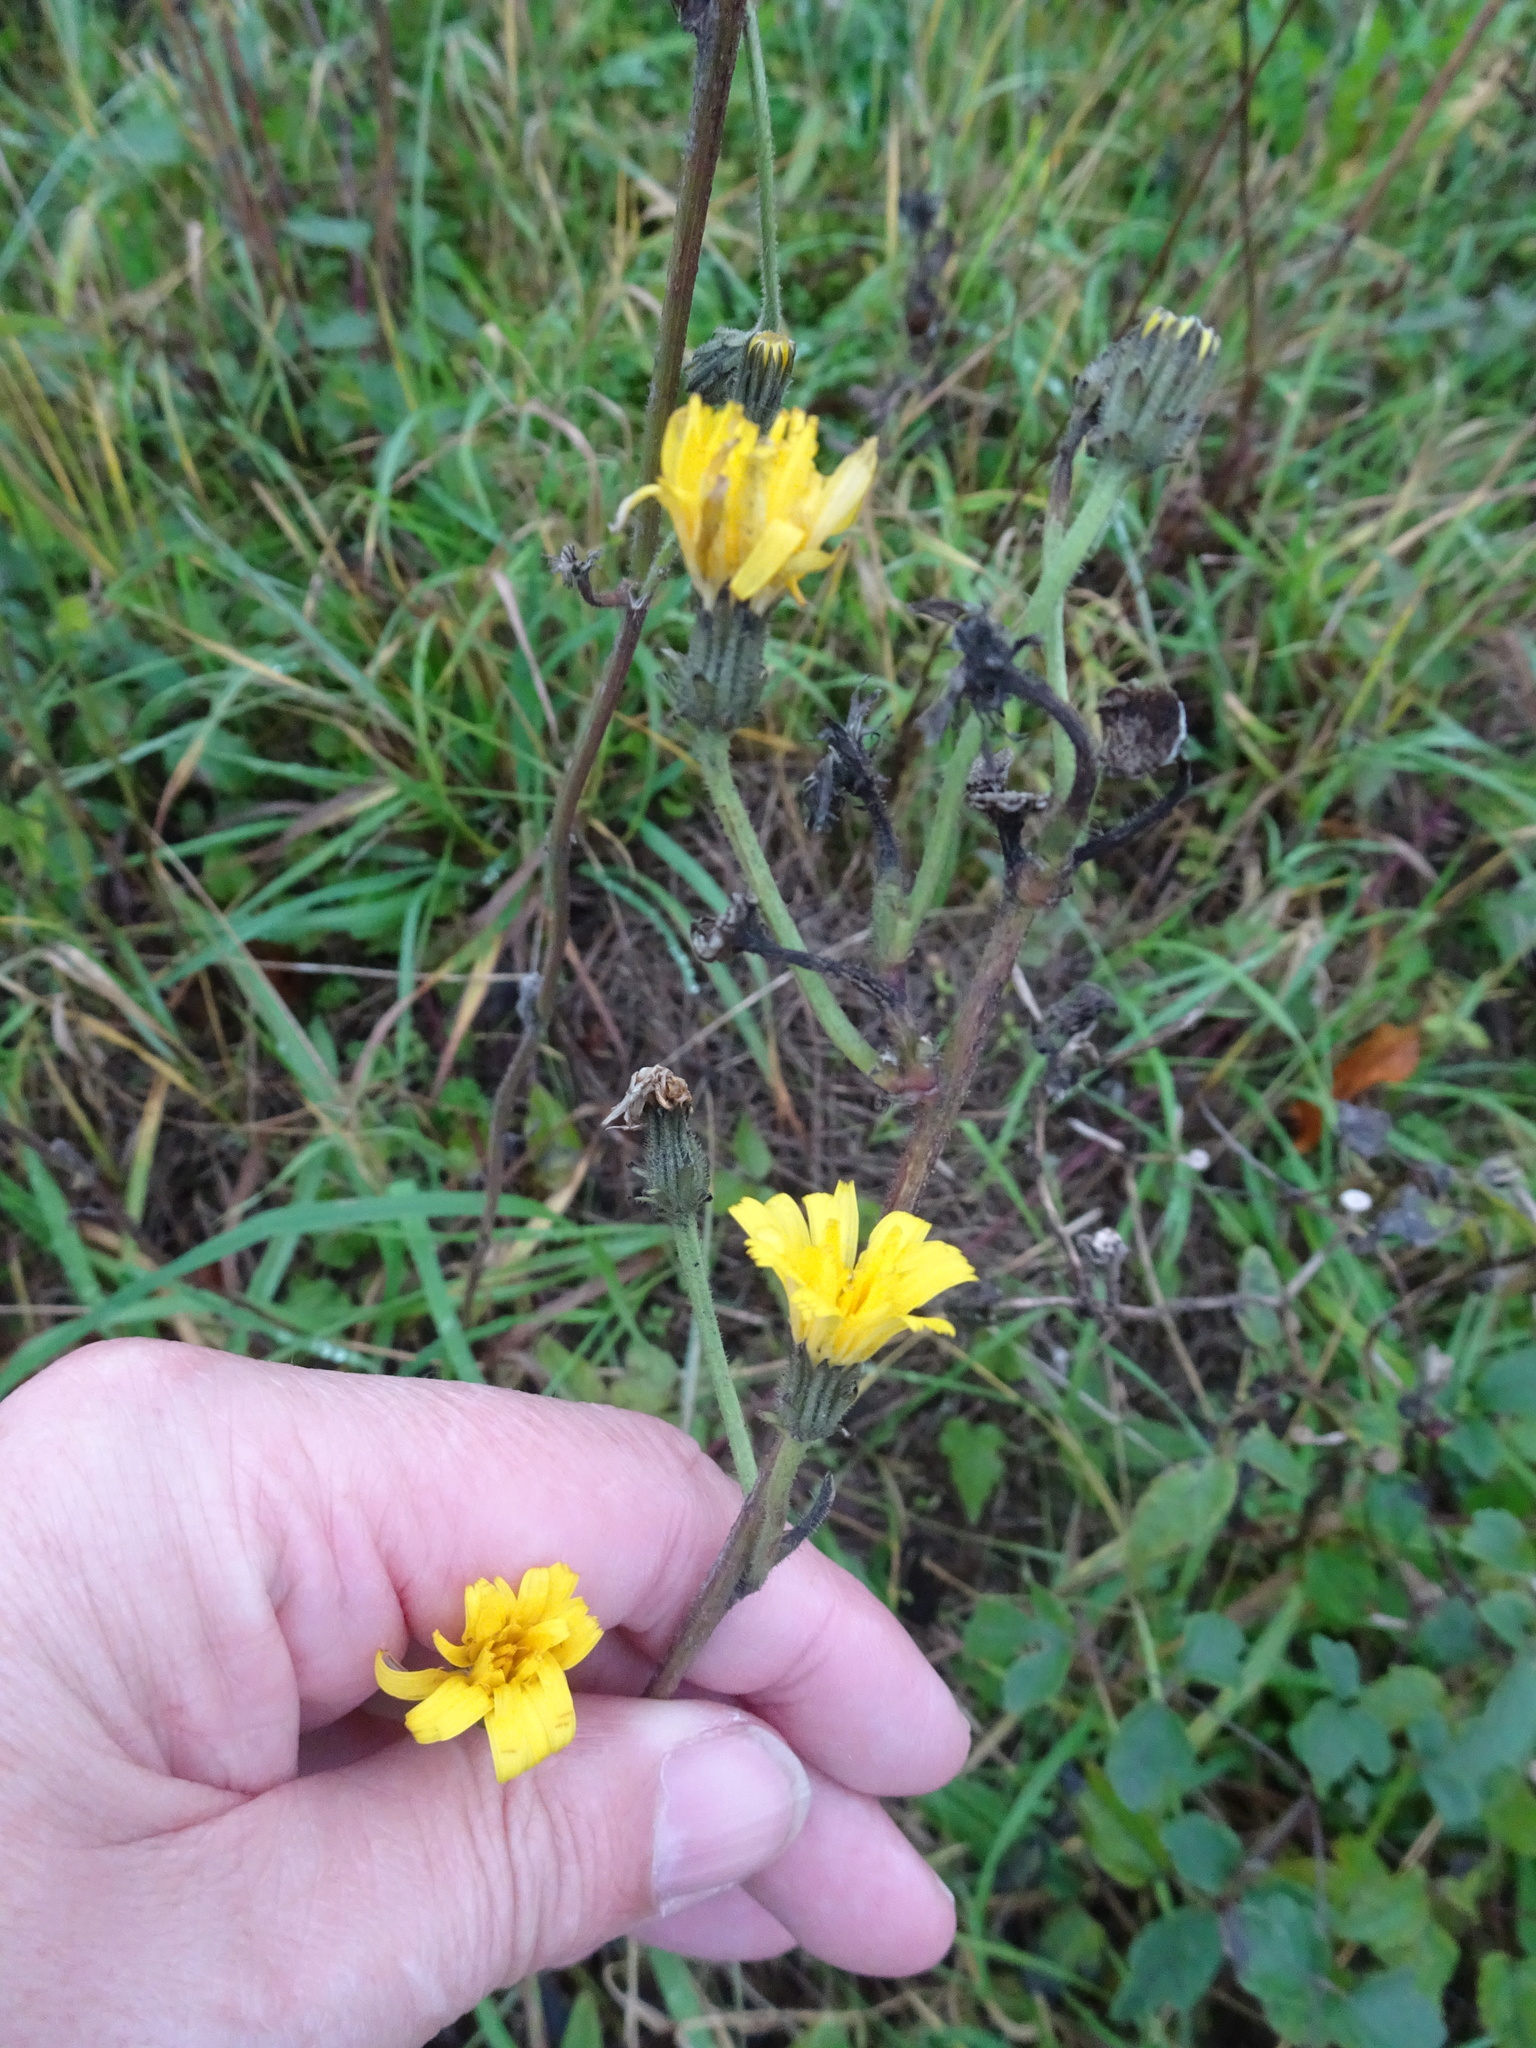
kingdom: Plantae
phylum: Tracheophyta
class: Magnoliopsida
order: Asterales
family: Asteraceae
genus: Picris
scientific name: Picris hieracioides
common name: Hawkweed oxtongue
